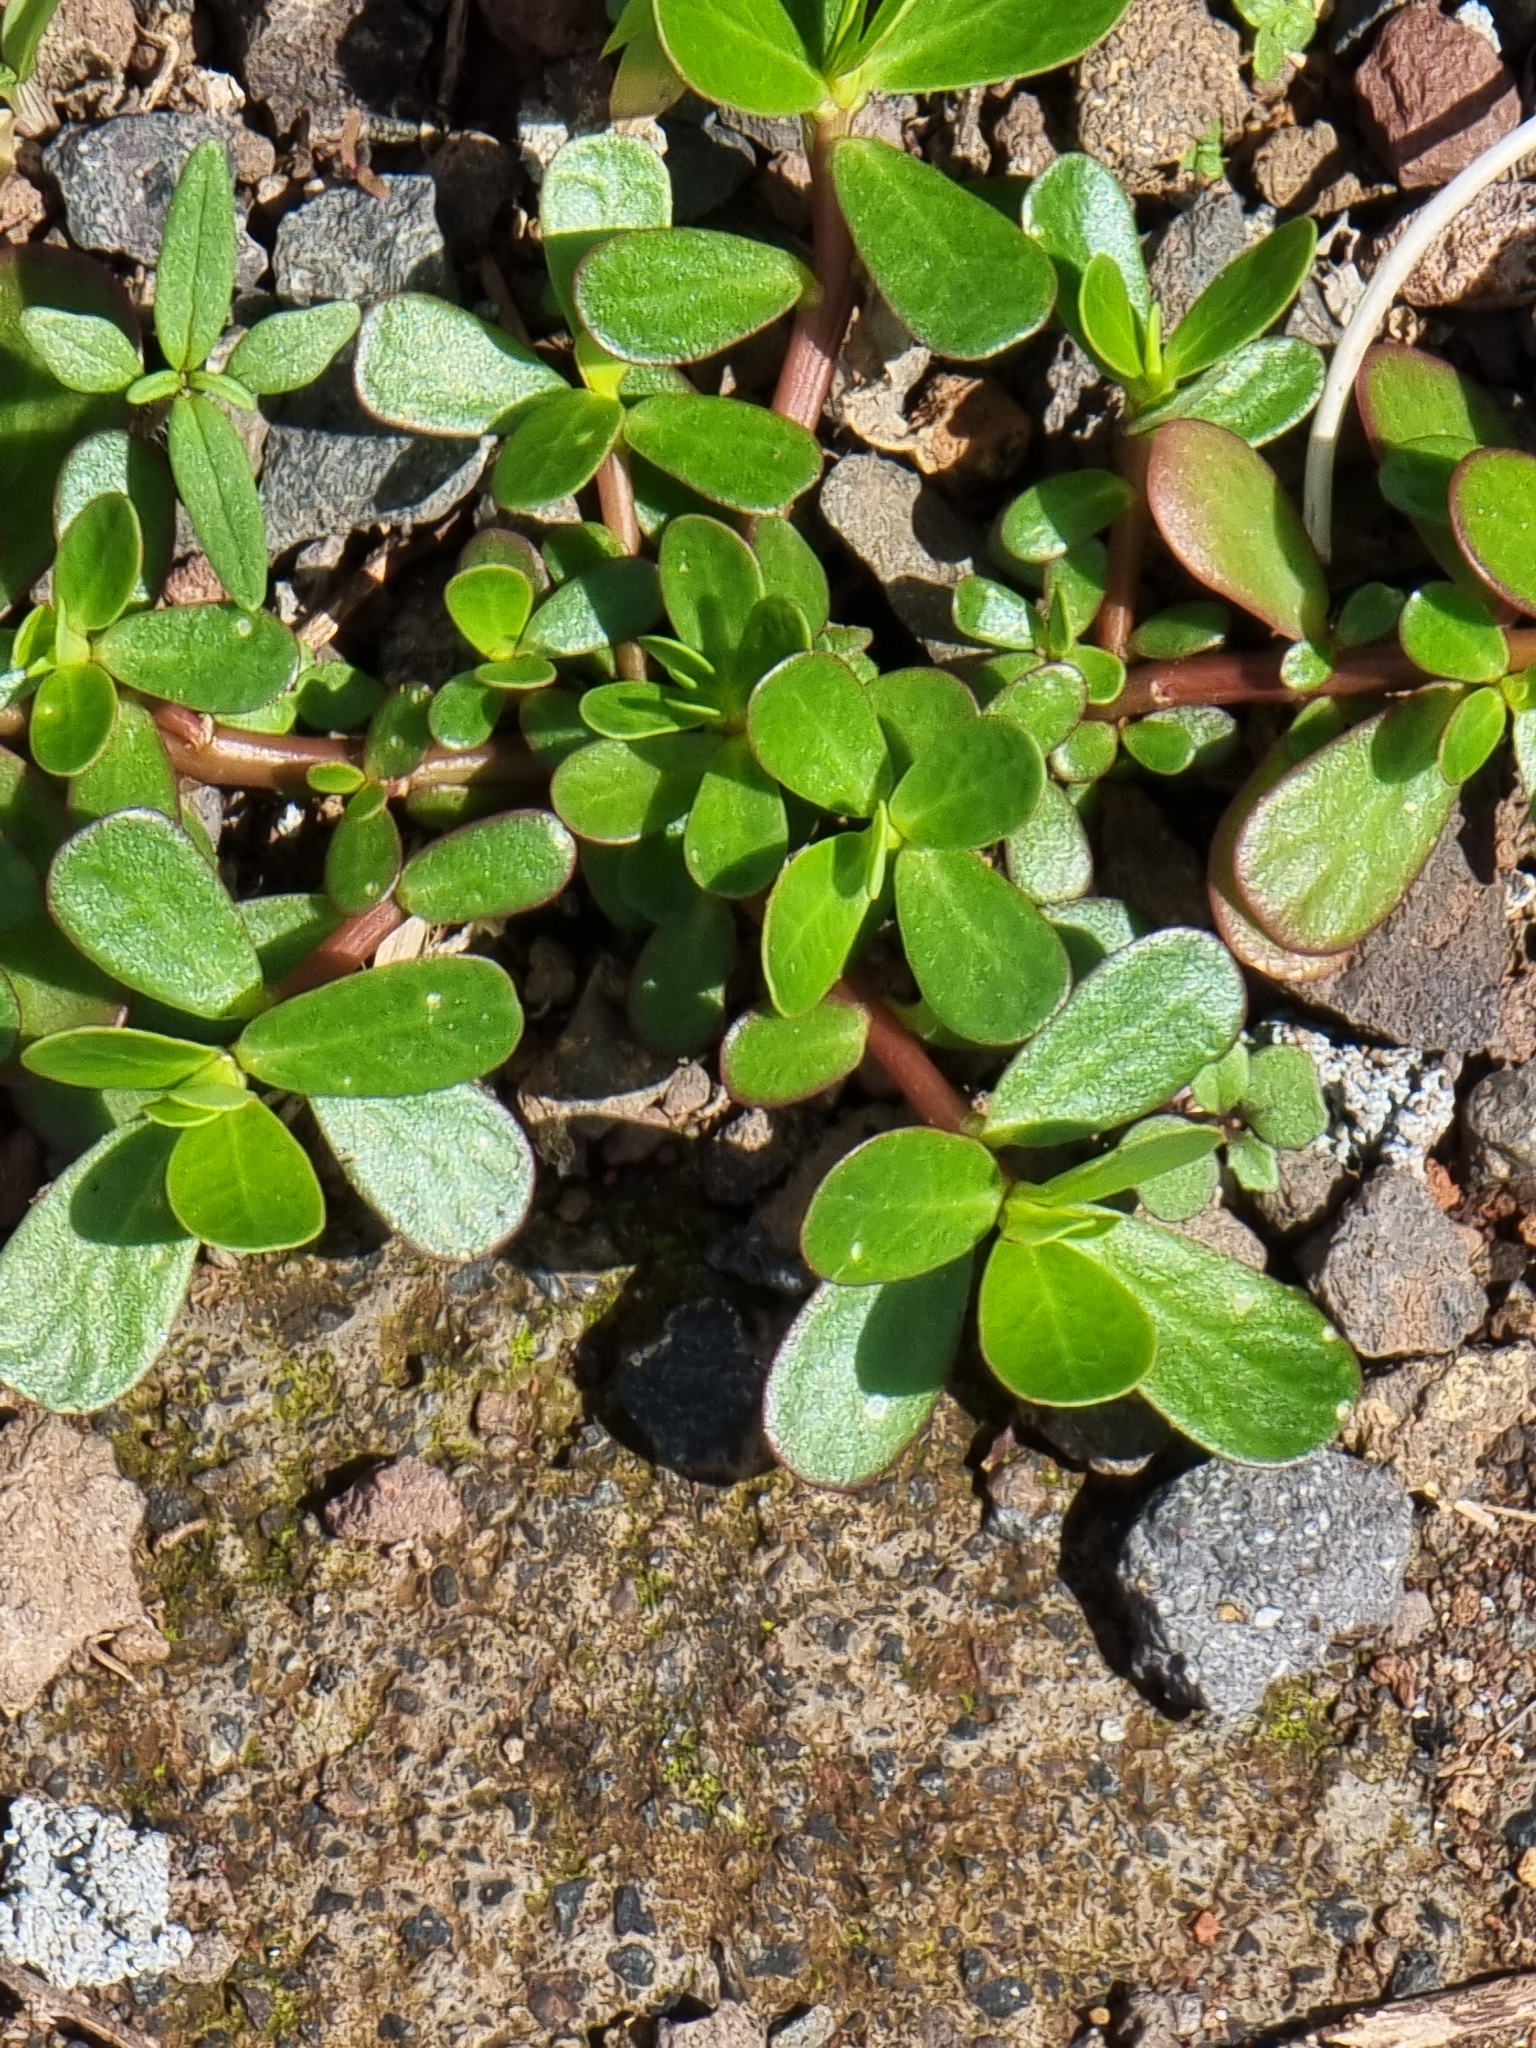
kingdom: Plantae
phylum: Tracheophyta
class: Magnoliopsida
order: Caryophyllales
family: Portulacaceae
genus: Portulaca
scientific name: Portulaca oleracea
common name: Common purslane
